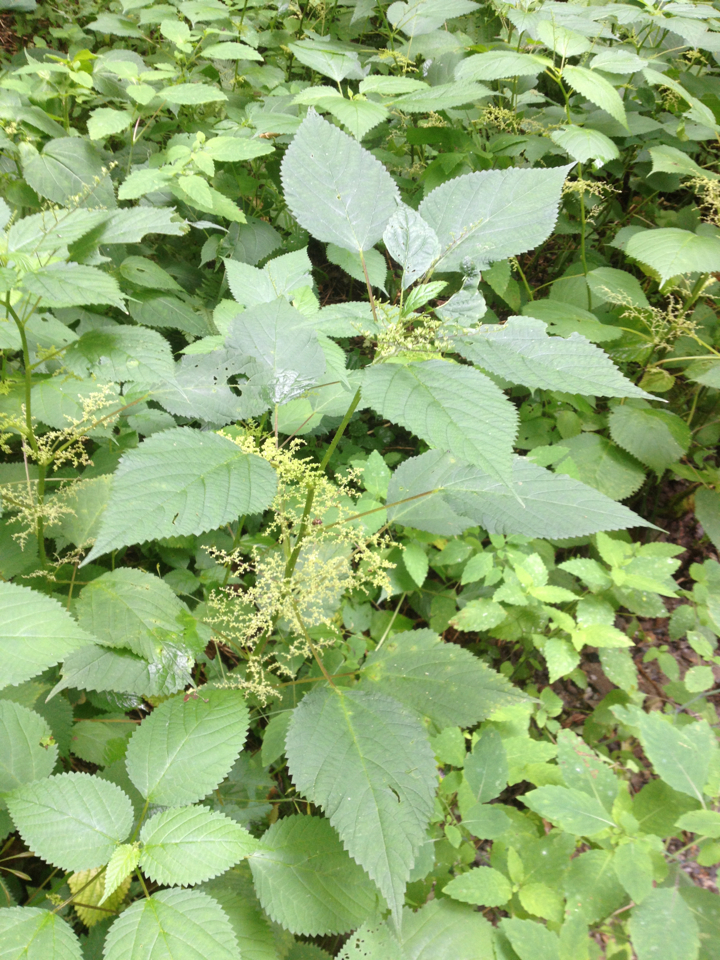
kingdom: Plantae
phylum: Tracheophyta
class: Magnoliopsida
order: Rosales
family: Urticaceae
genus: Laportea
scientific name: Laportea canadensis
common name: Canada nettle
